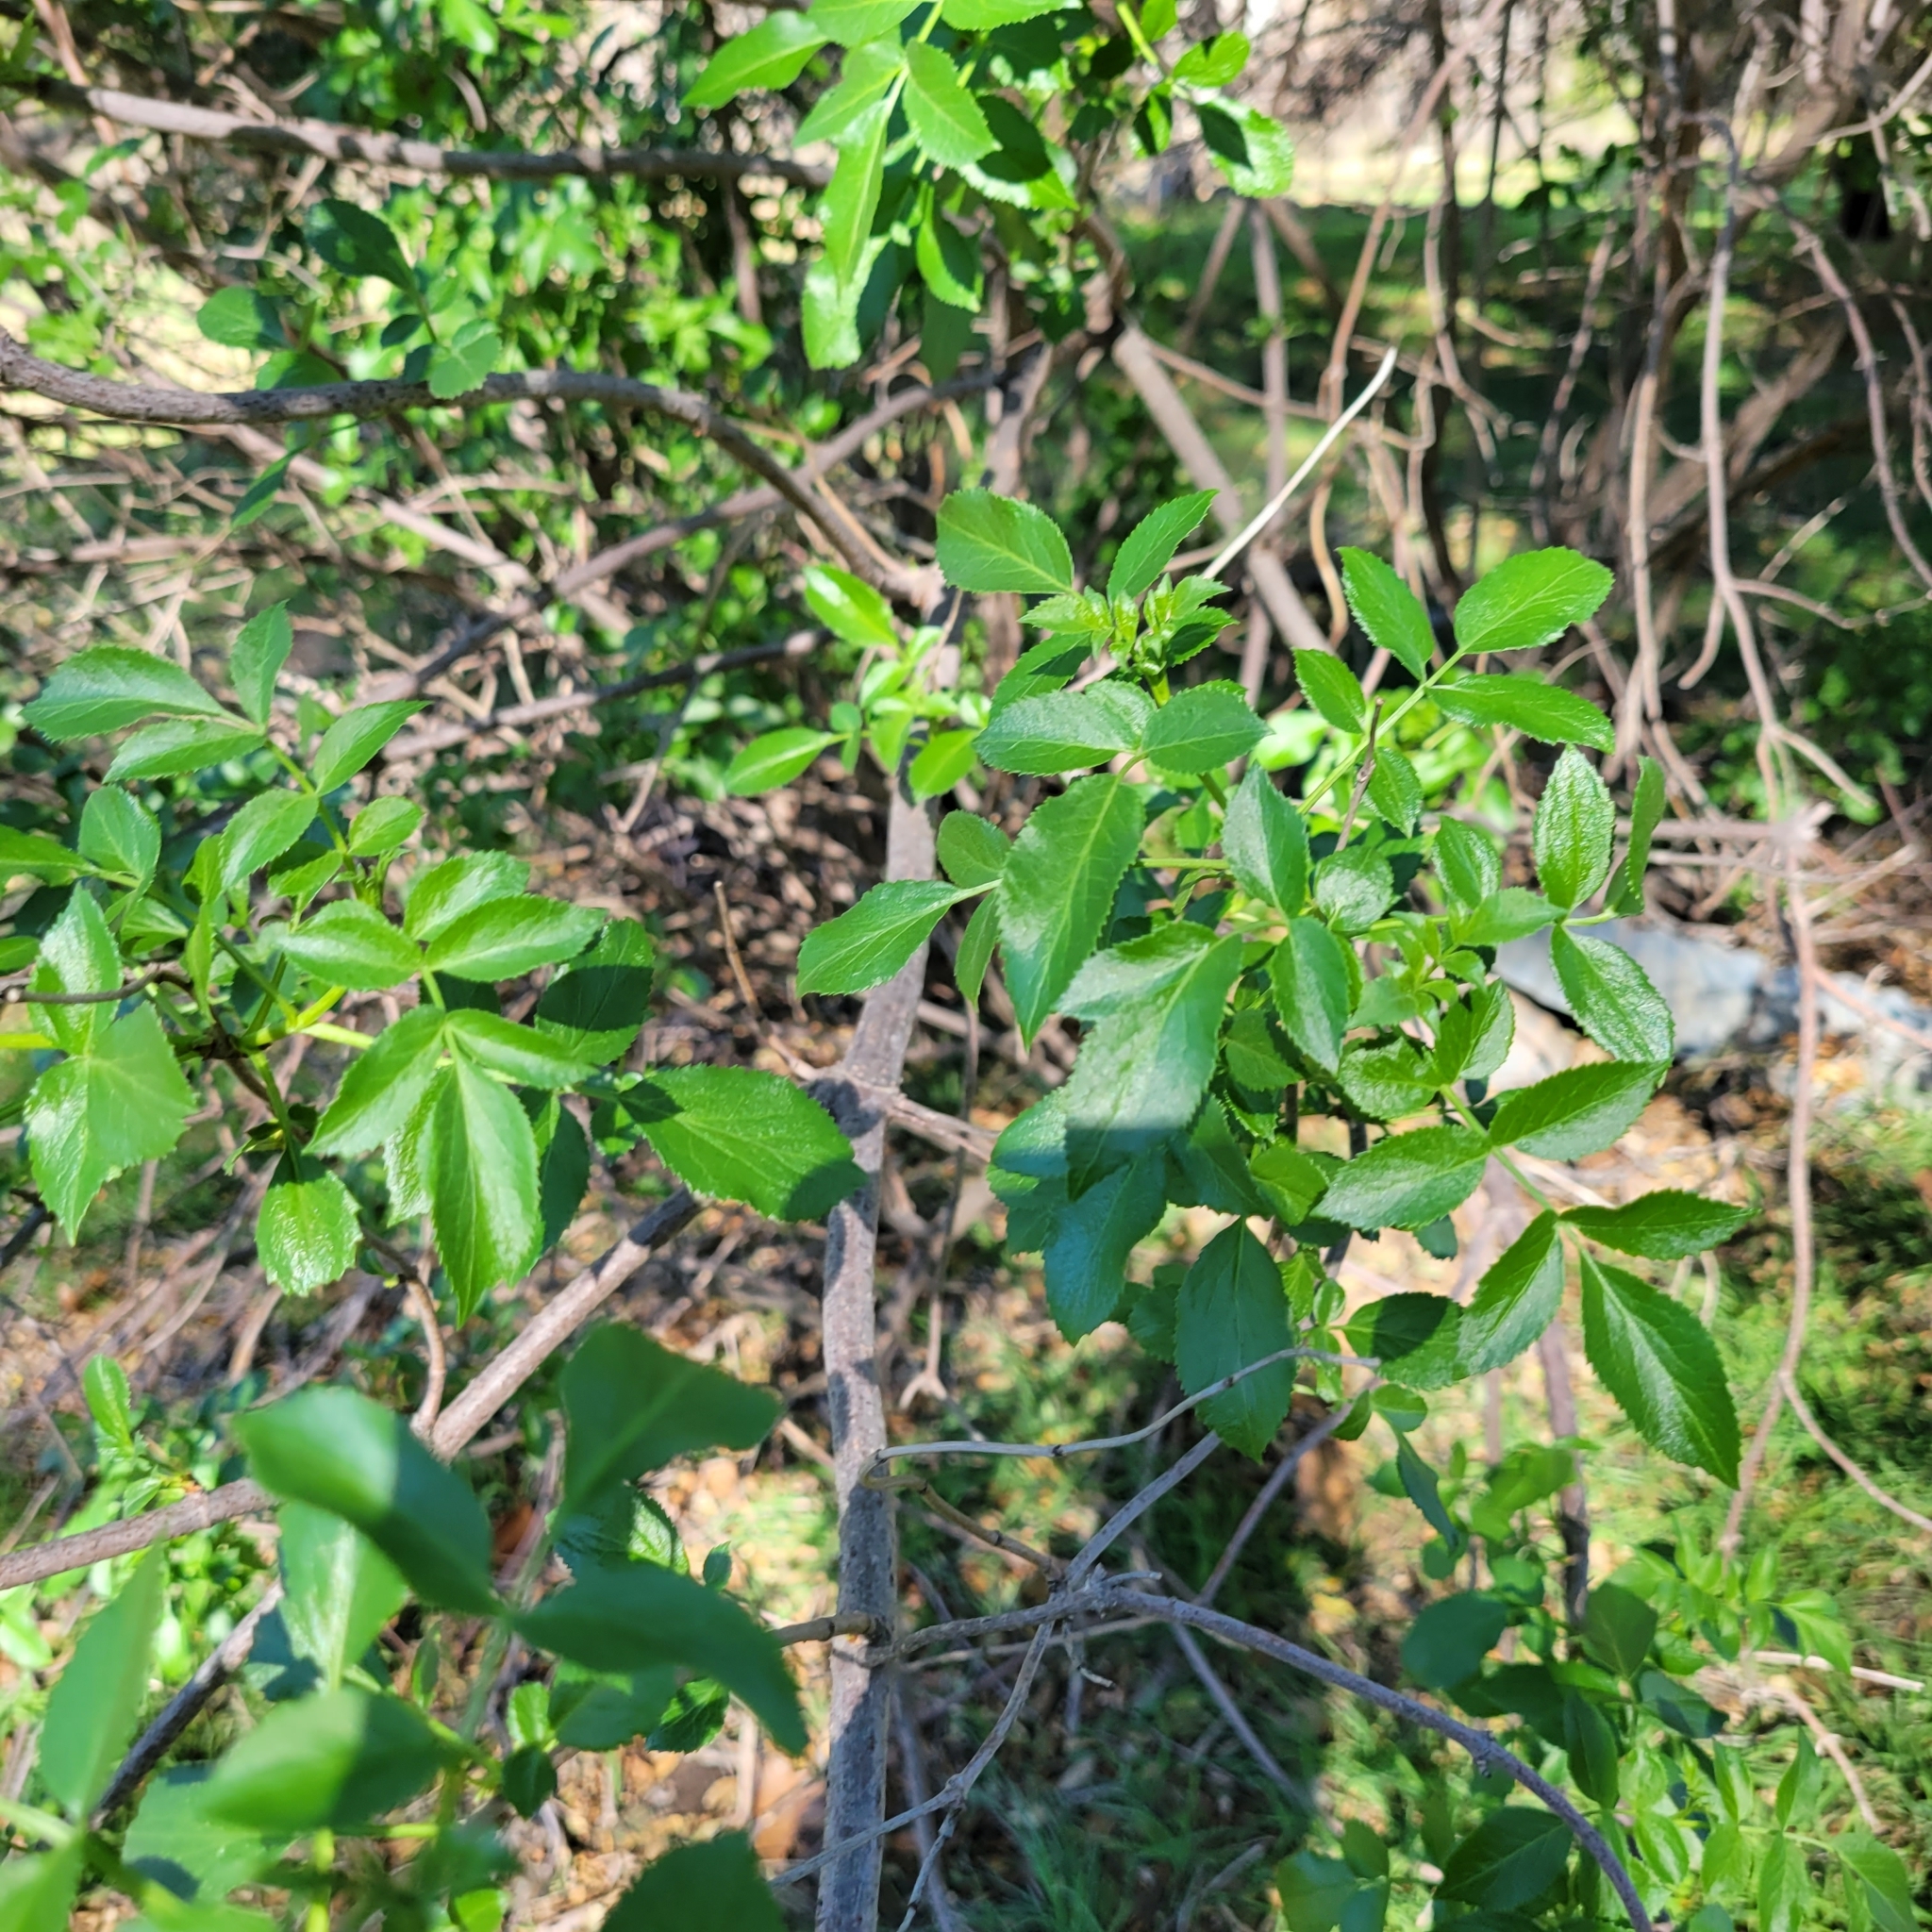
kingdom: Plantae
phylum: Tracheophyta
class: Magnoliopsida
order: Dipsacales
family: Viburnaceae
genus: Sambucus
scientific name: Sambucus cerulea
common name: Blue elder
